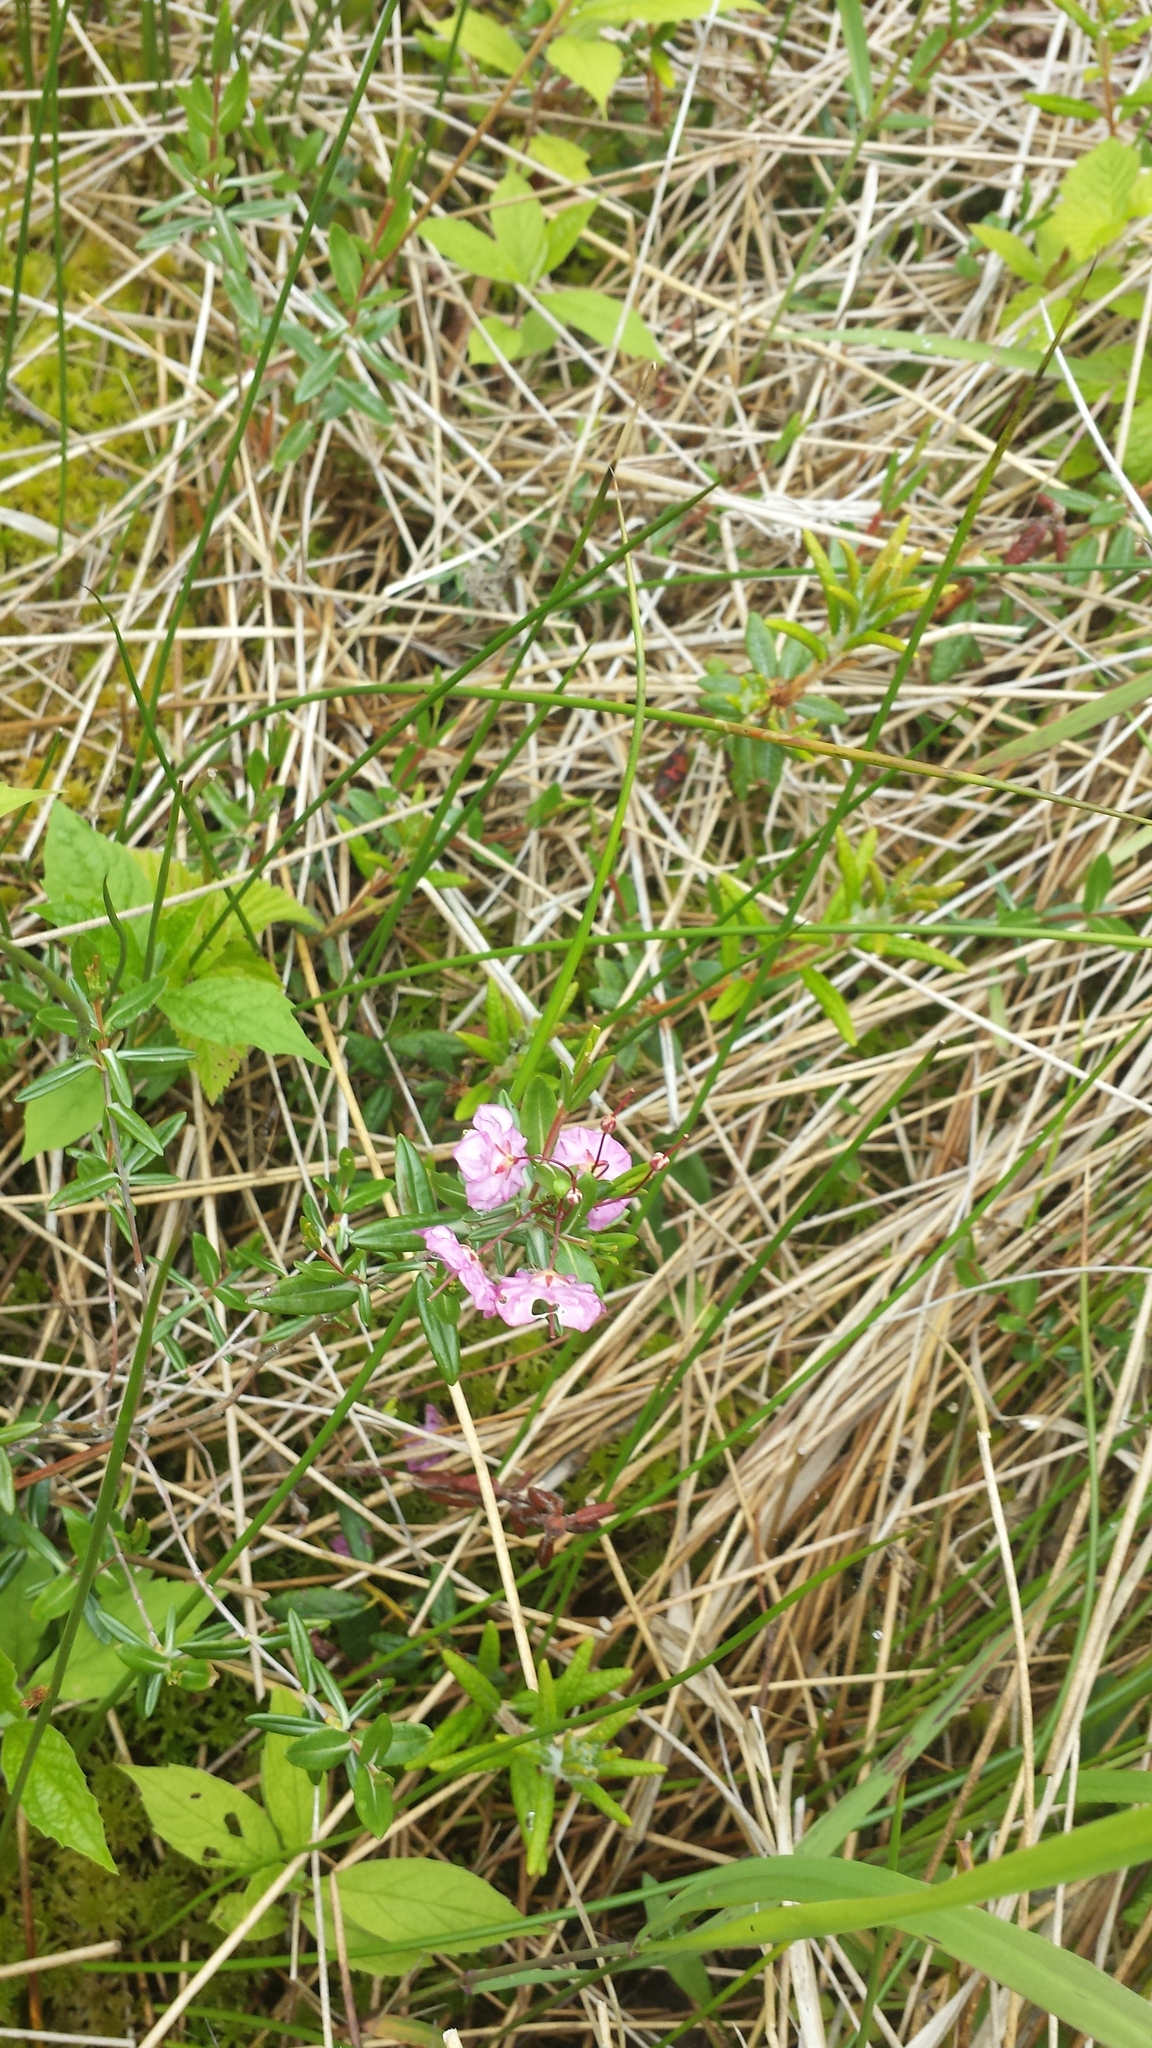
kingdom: Plantae
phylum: Tracheophyta
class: Magnoliopsida
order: Ericales
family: Ericaceae
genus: Kalmia
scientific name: Kalmia polifolia
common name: Bog-laurel
